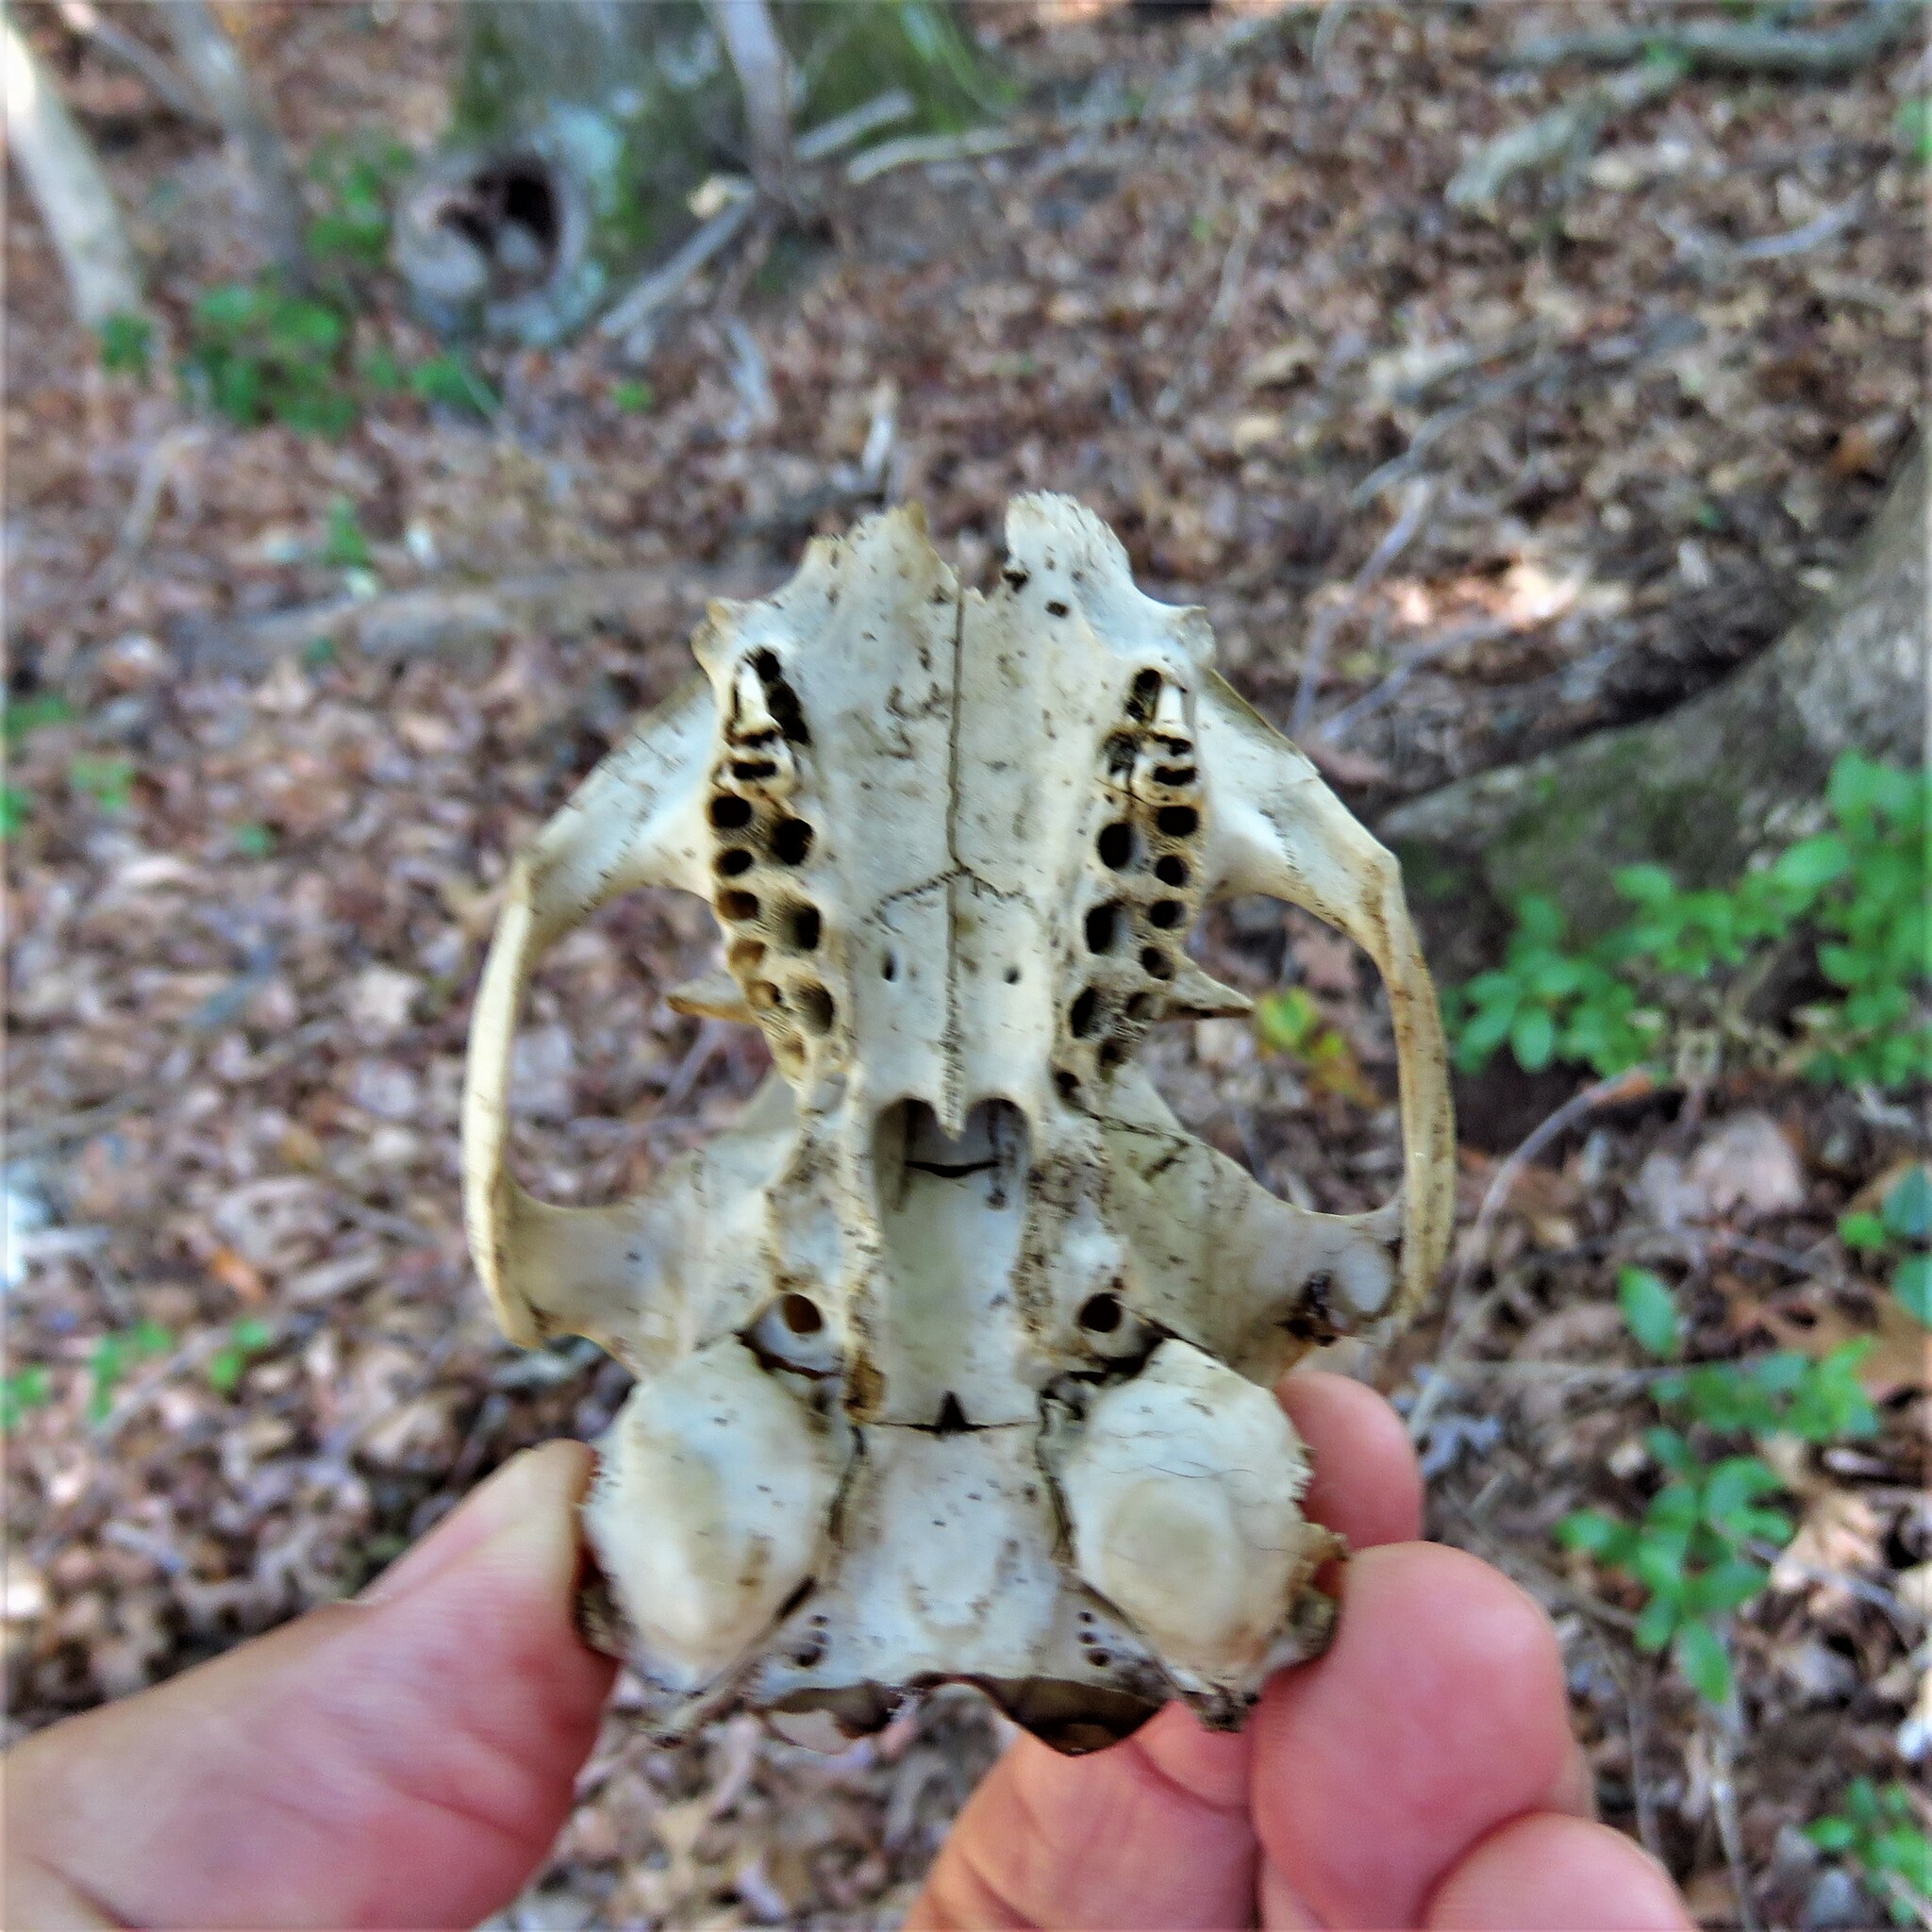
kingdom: Animalia
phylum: Chordata
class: Mammalia
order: Rodentia
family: Sciuridae
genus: Marmota
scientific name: Marmota monax
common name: Groundhog
